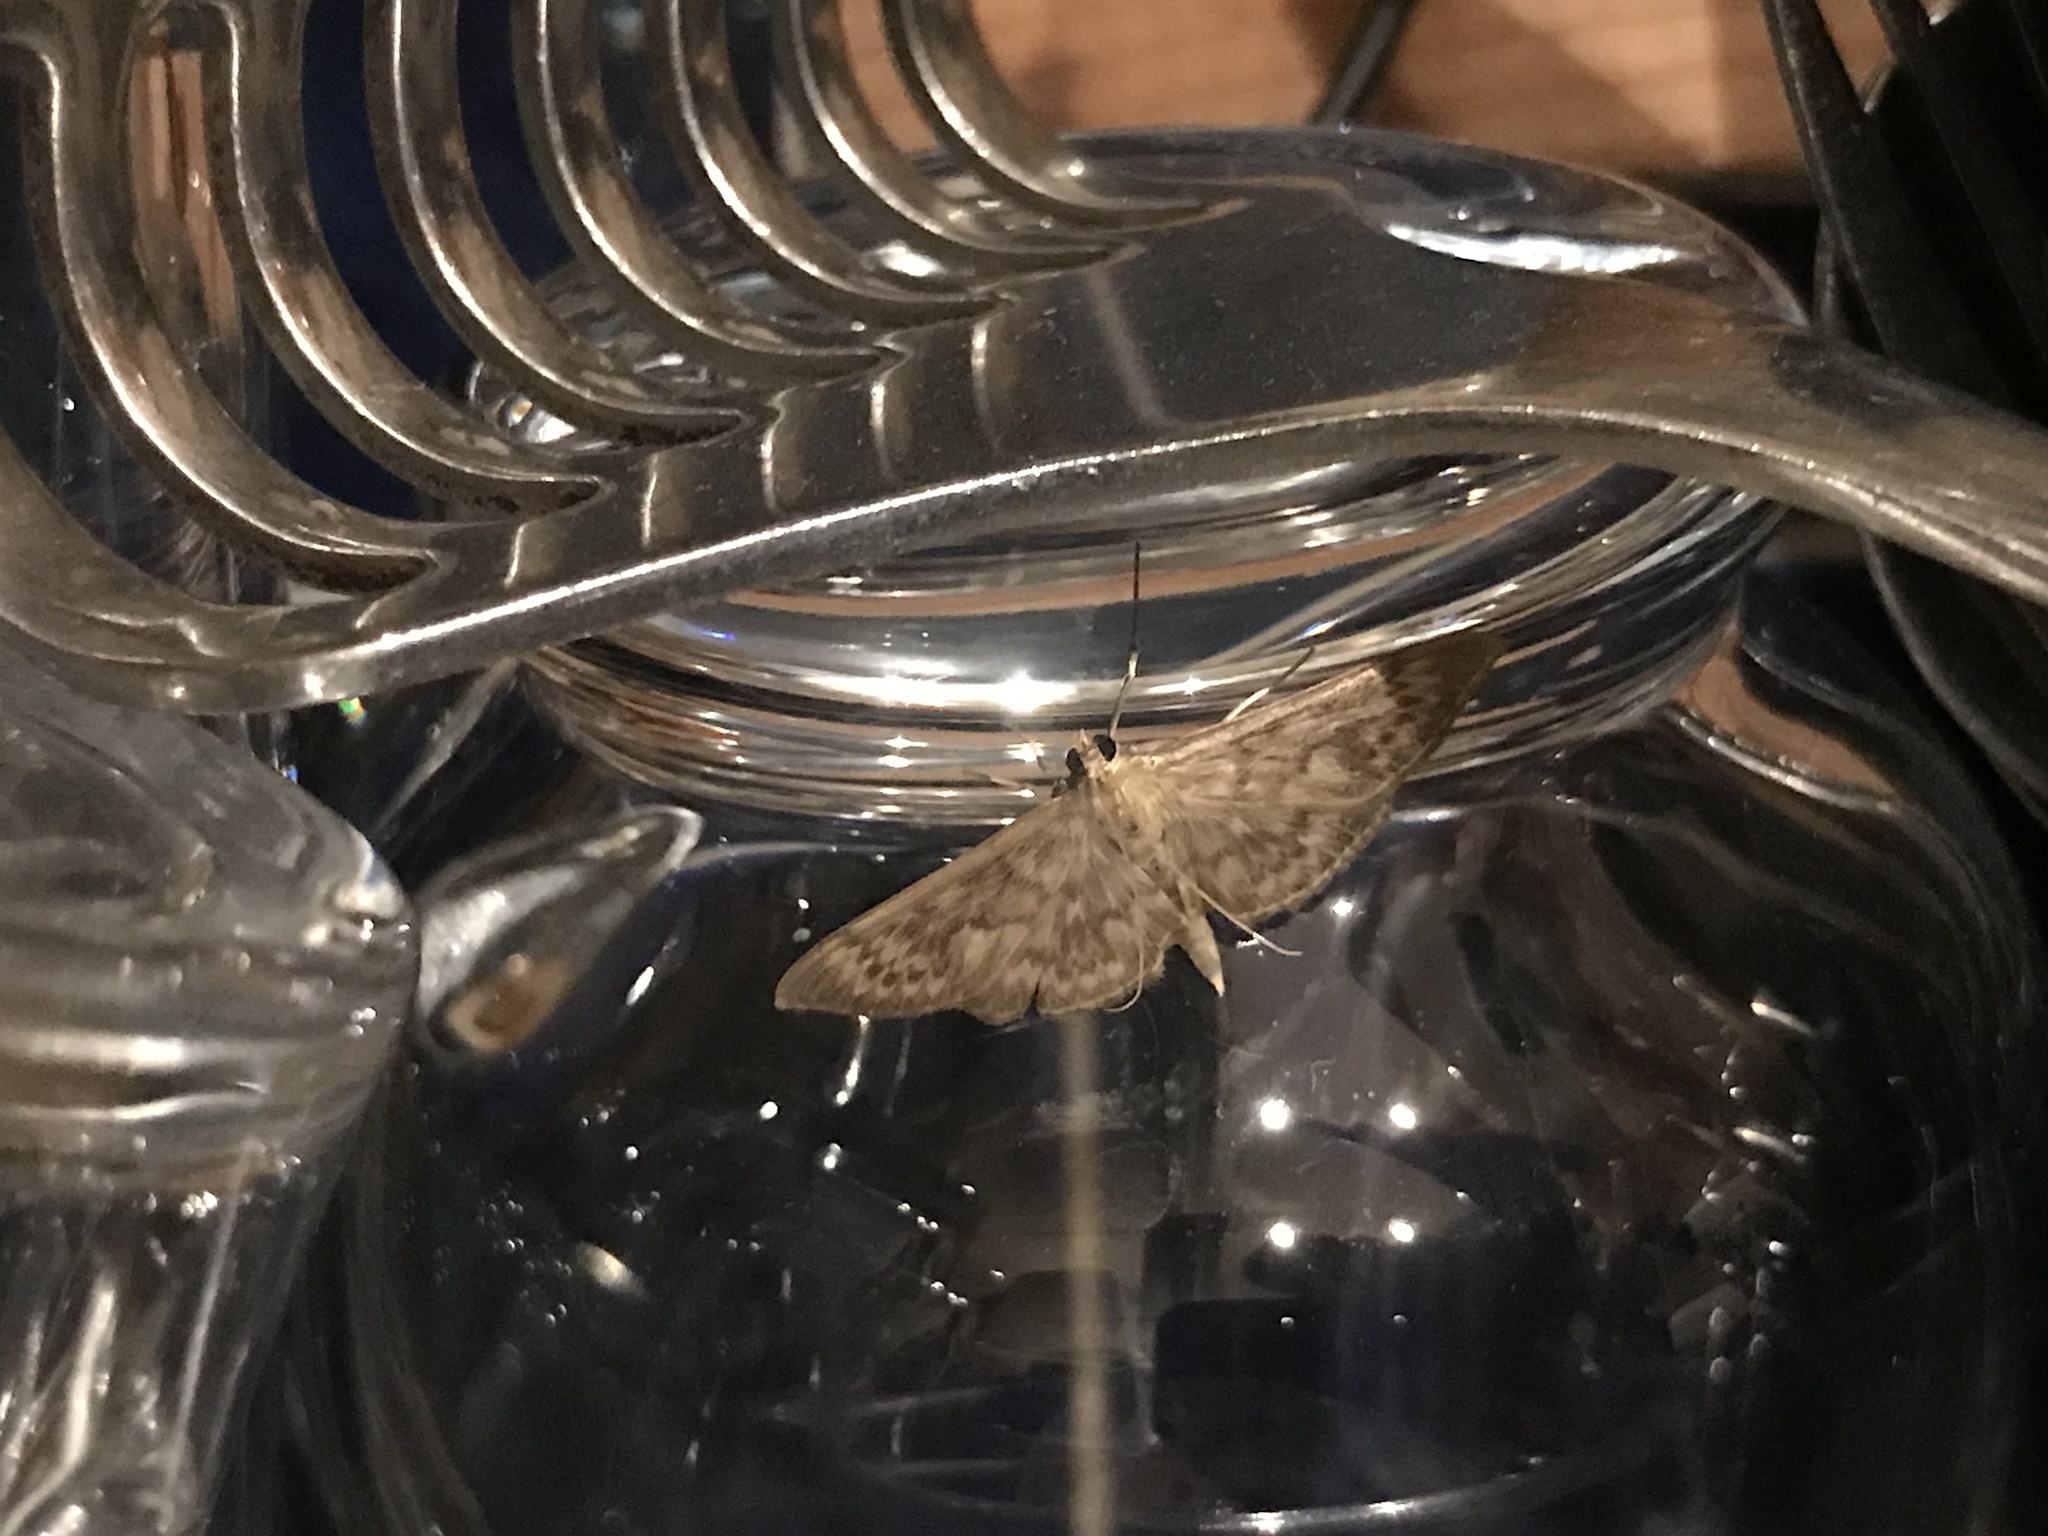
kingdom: Animalia
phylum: Arthropoda
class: Insecta
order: Lepidoptera
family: Crambidae
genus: Patania
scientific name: Patania ruralis
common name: Mother of pearl
